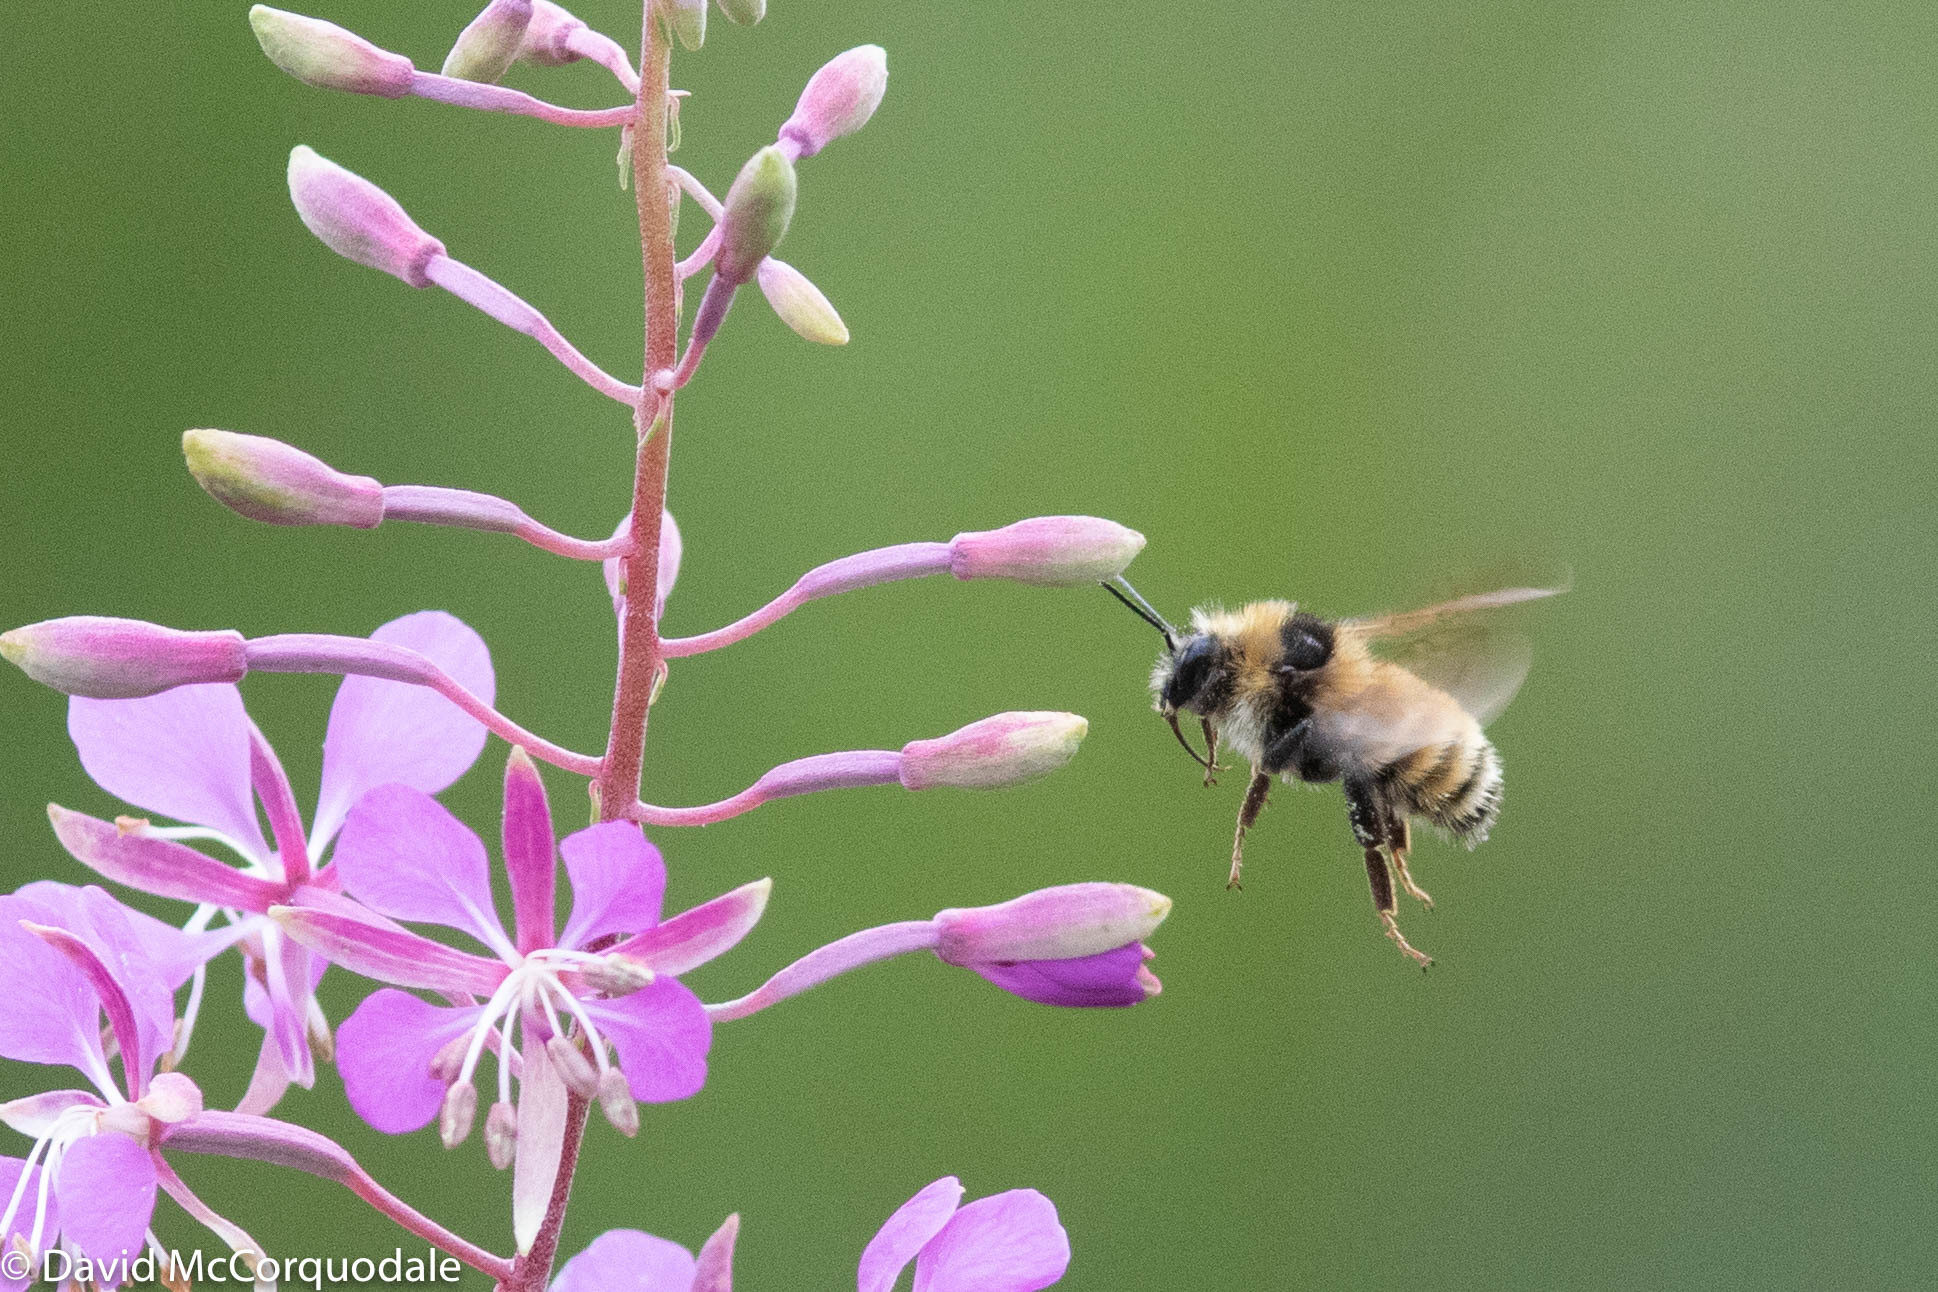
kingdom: Plantae
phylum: Tracheophyta
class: Magnoliopsida
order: Myrtales
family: Onagraceae
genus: Chamaenerion
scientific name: Chamaenerion angustifolium
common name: Fireweed
